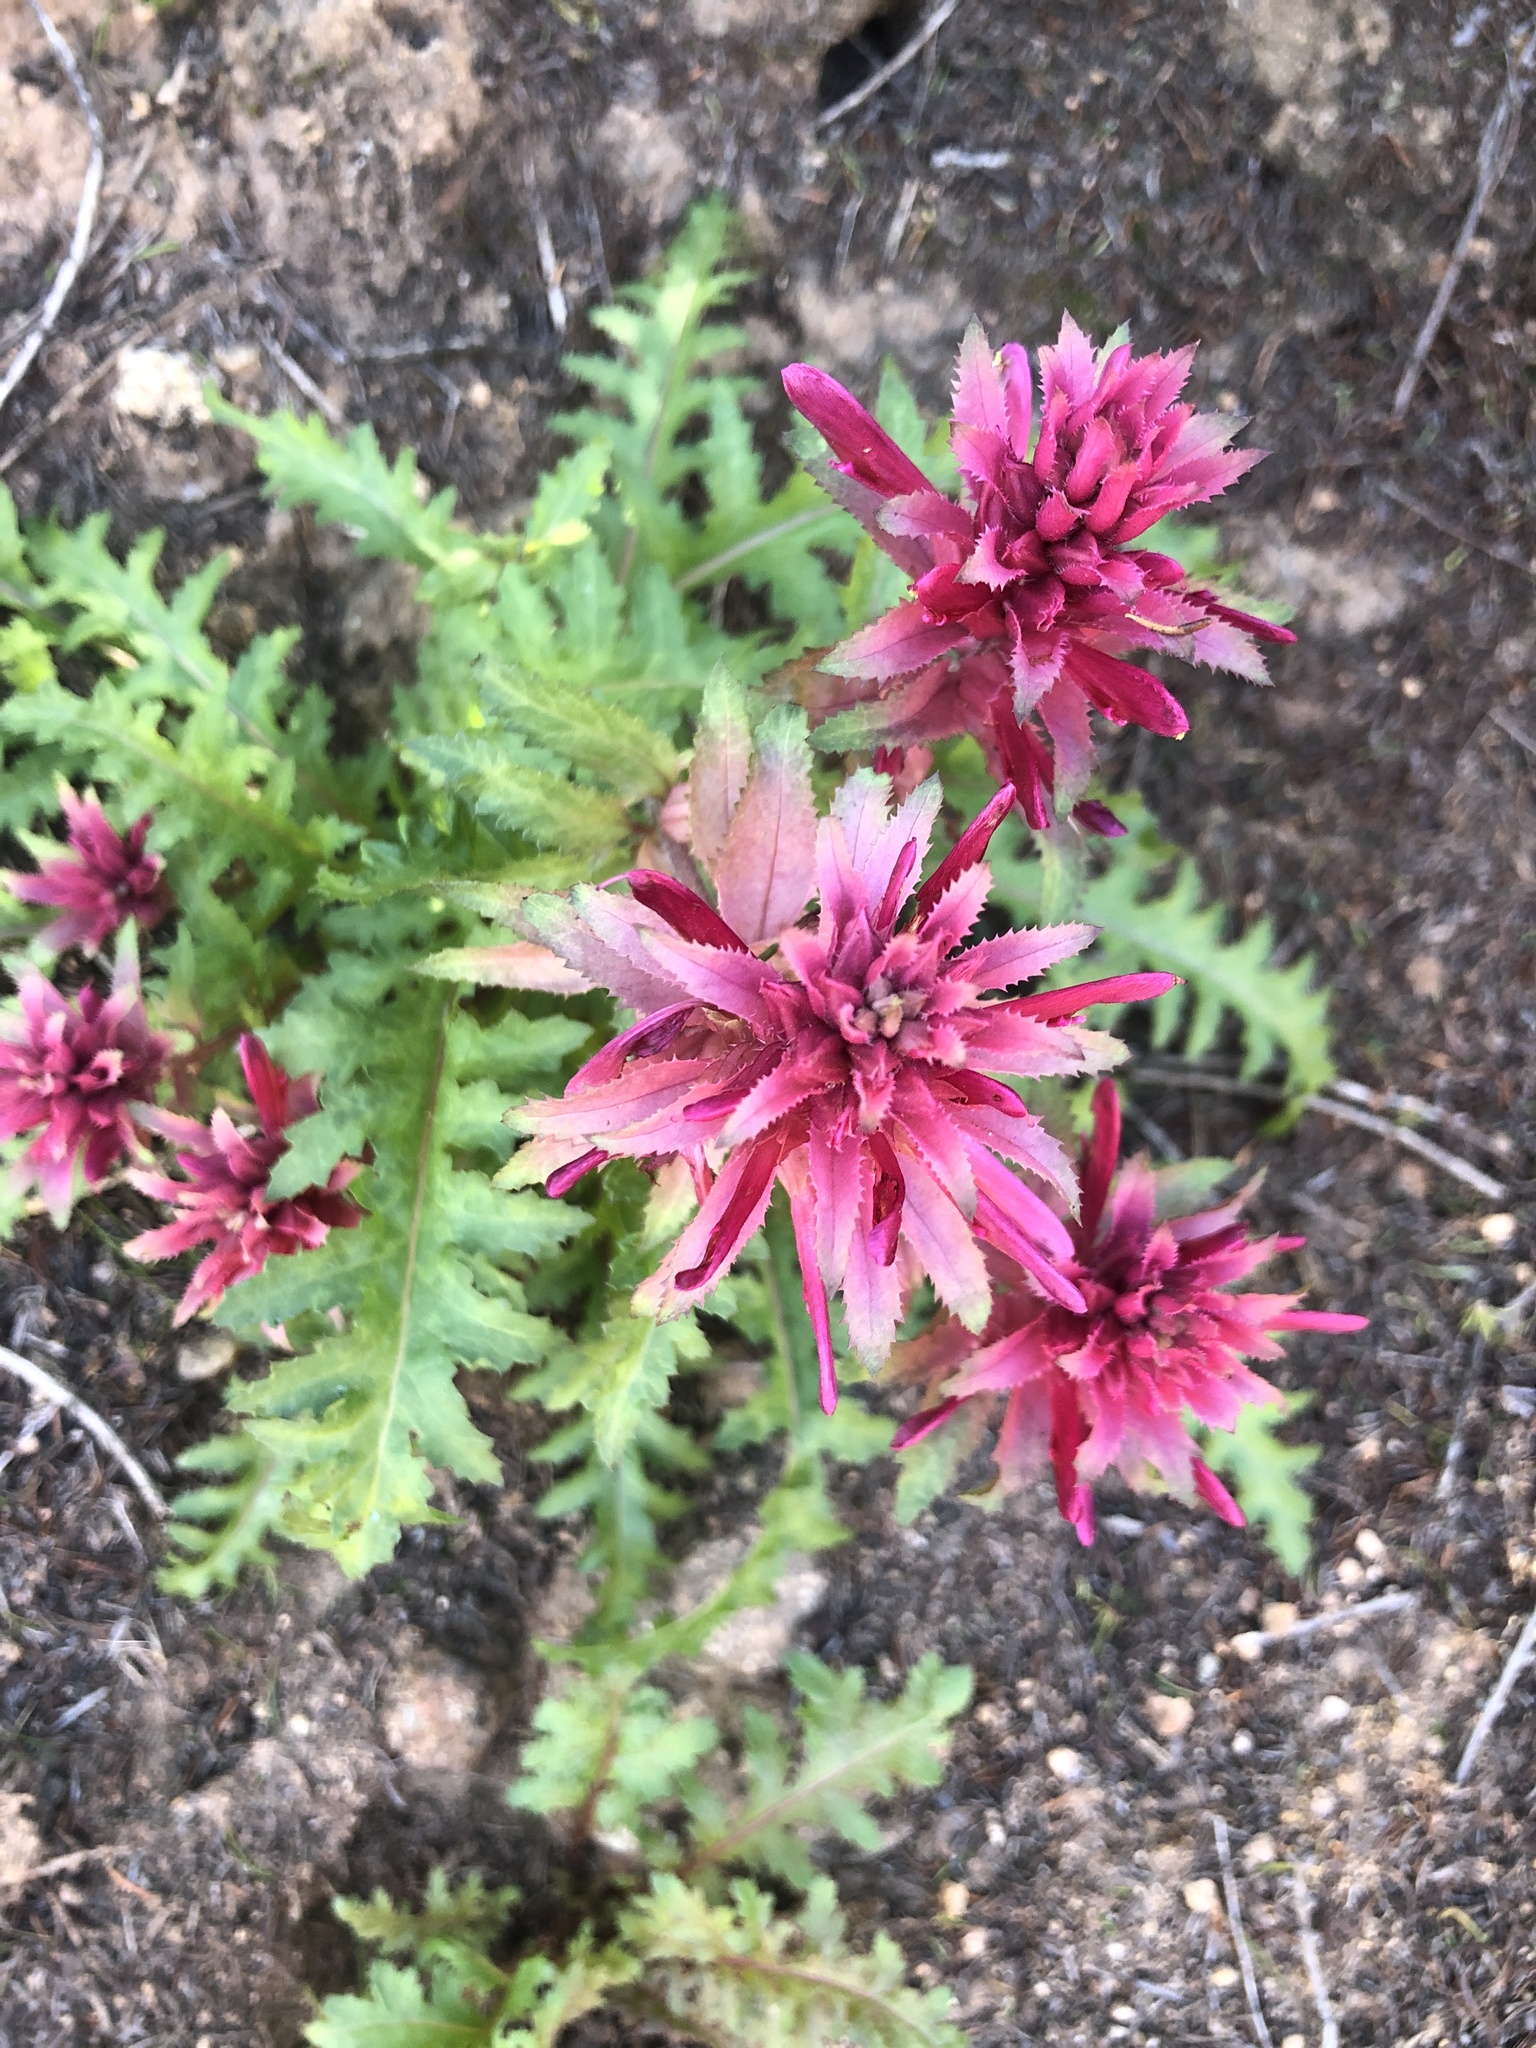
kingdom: Plantae
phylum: Tracheophyta
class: Magnoliopsida
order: Lamiales
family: Orobanchaceae
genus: Pedicularis
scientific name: Pedicularis densiflora
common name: Indian warrior
